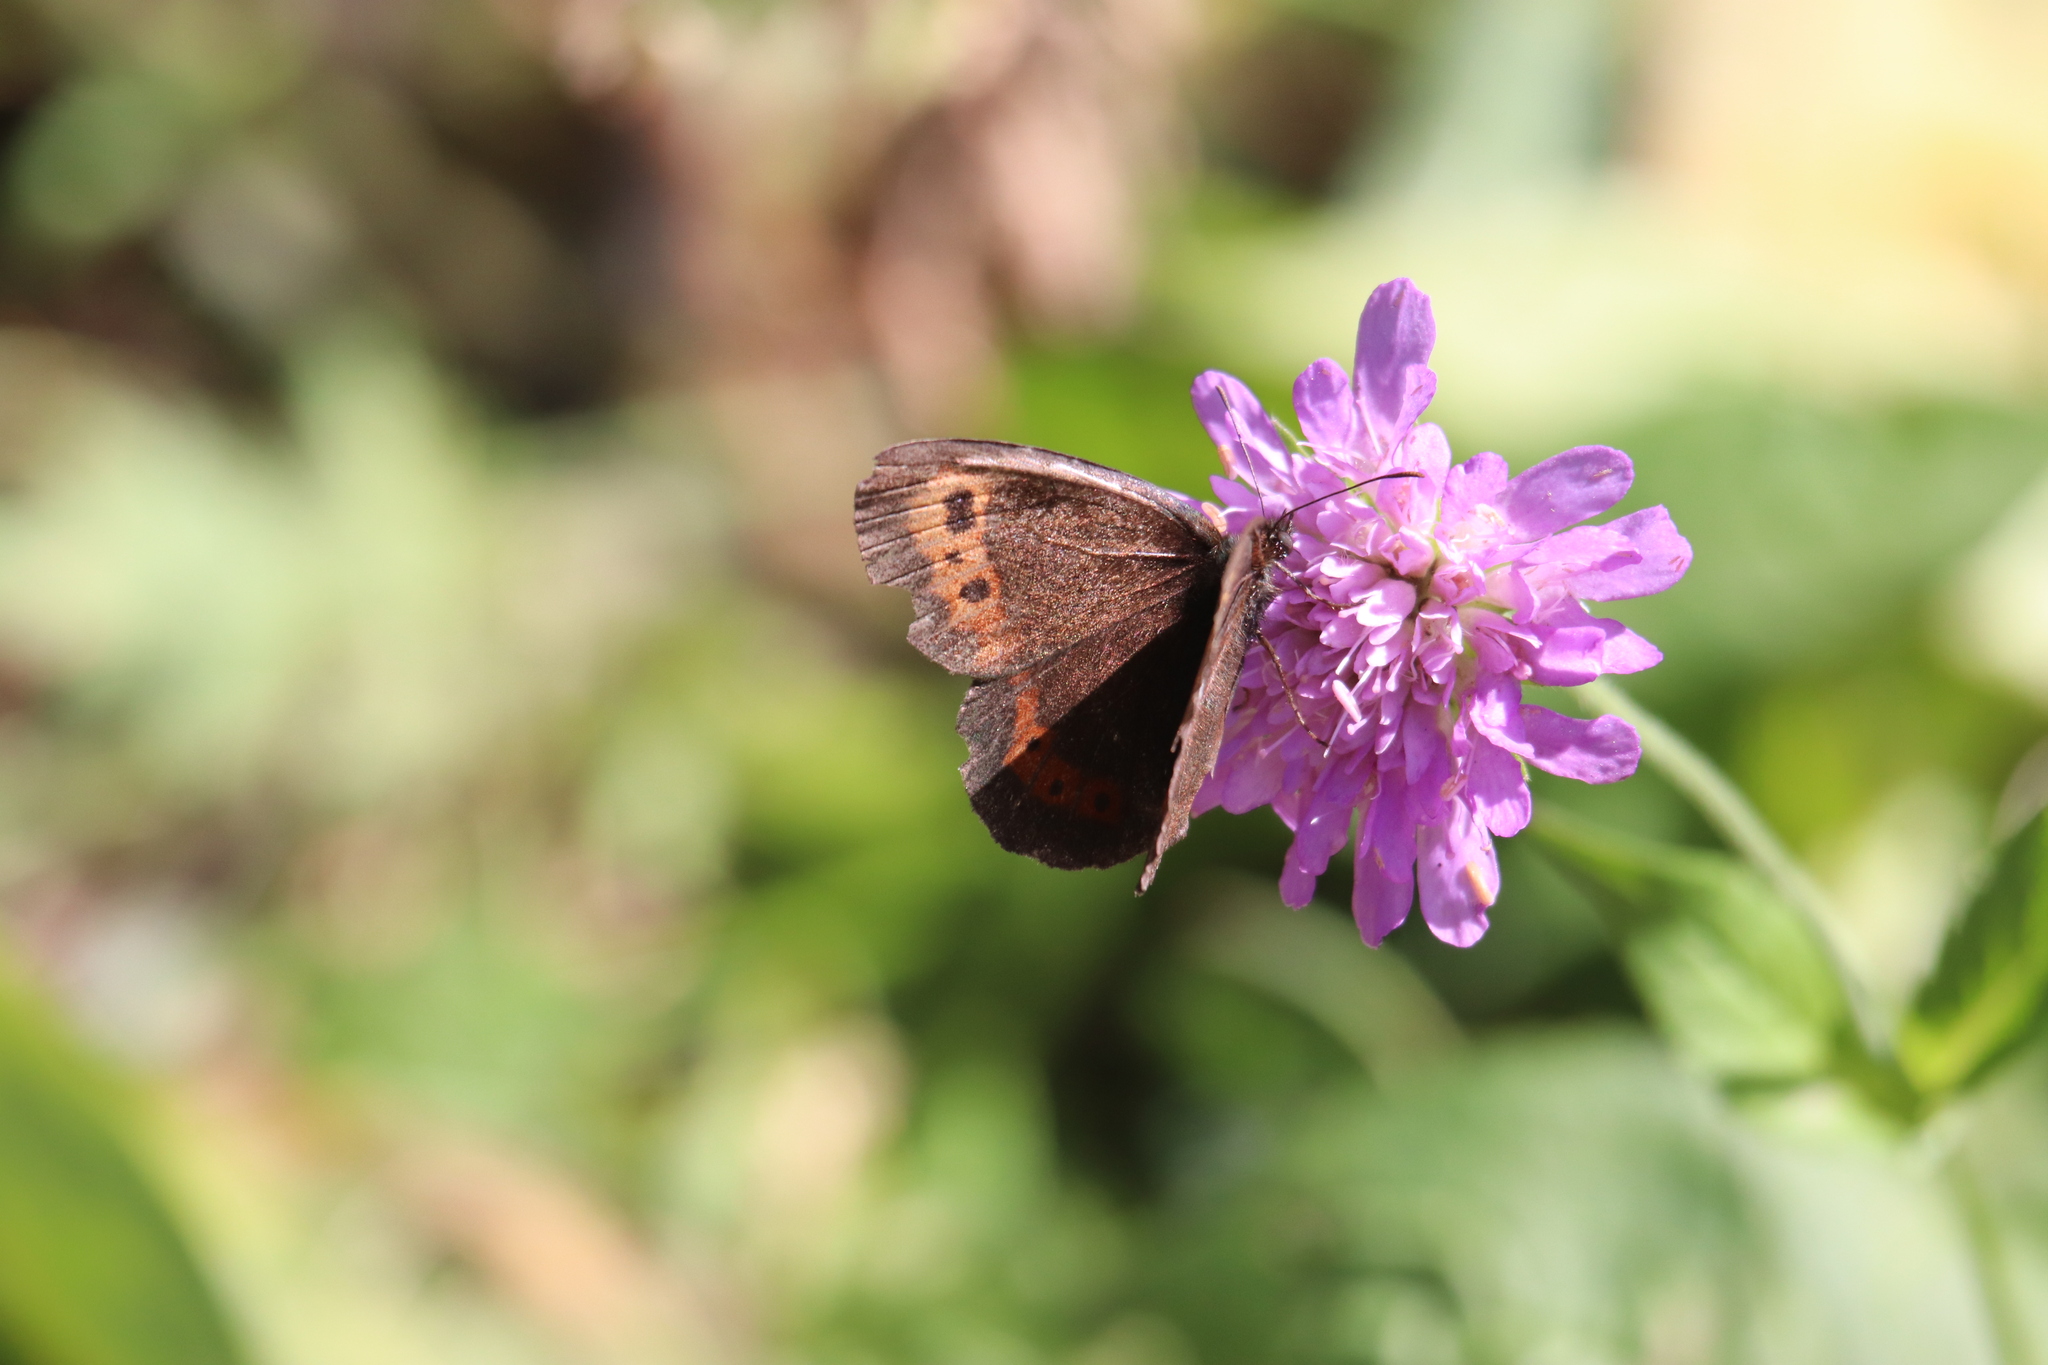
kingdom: Animalia
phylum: Arthropoda
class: Insecta
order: Lepidoptera
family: Nymphalidae
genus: Erebia
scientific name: Erebia ligea
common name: Arran brown
